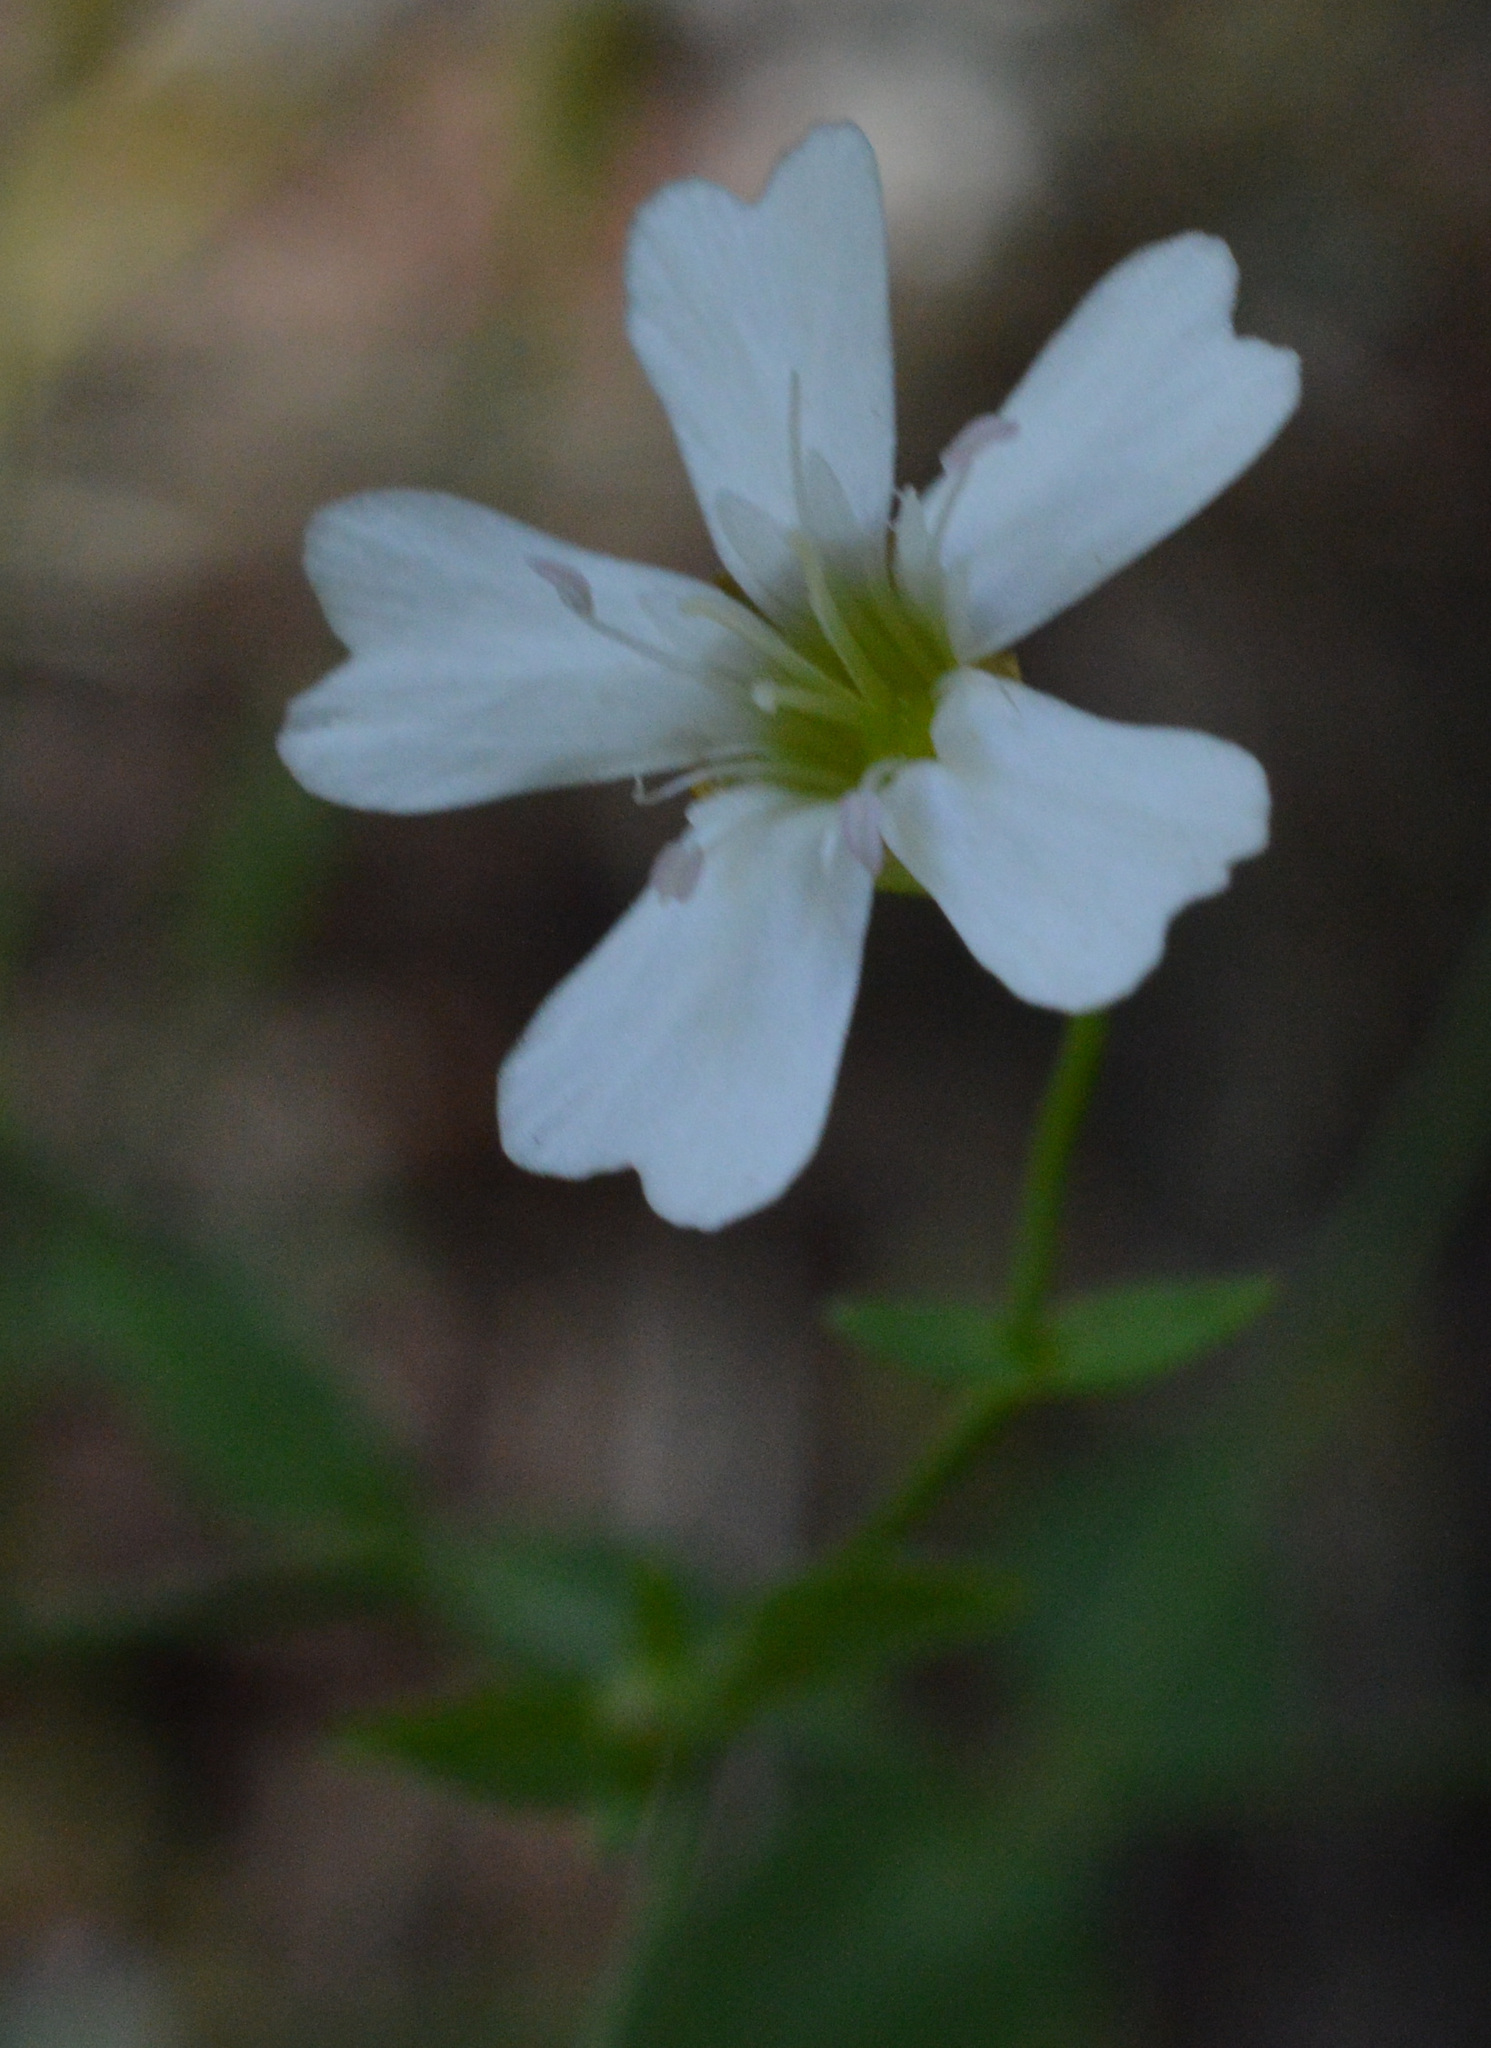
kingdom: Plantae
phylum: Tracheophyta
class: Magnoliopsida
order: Caryophyllales
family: Caryophyllaceae
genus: Atocion
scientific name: Atocion rupestre
